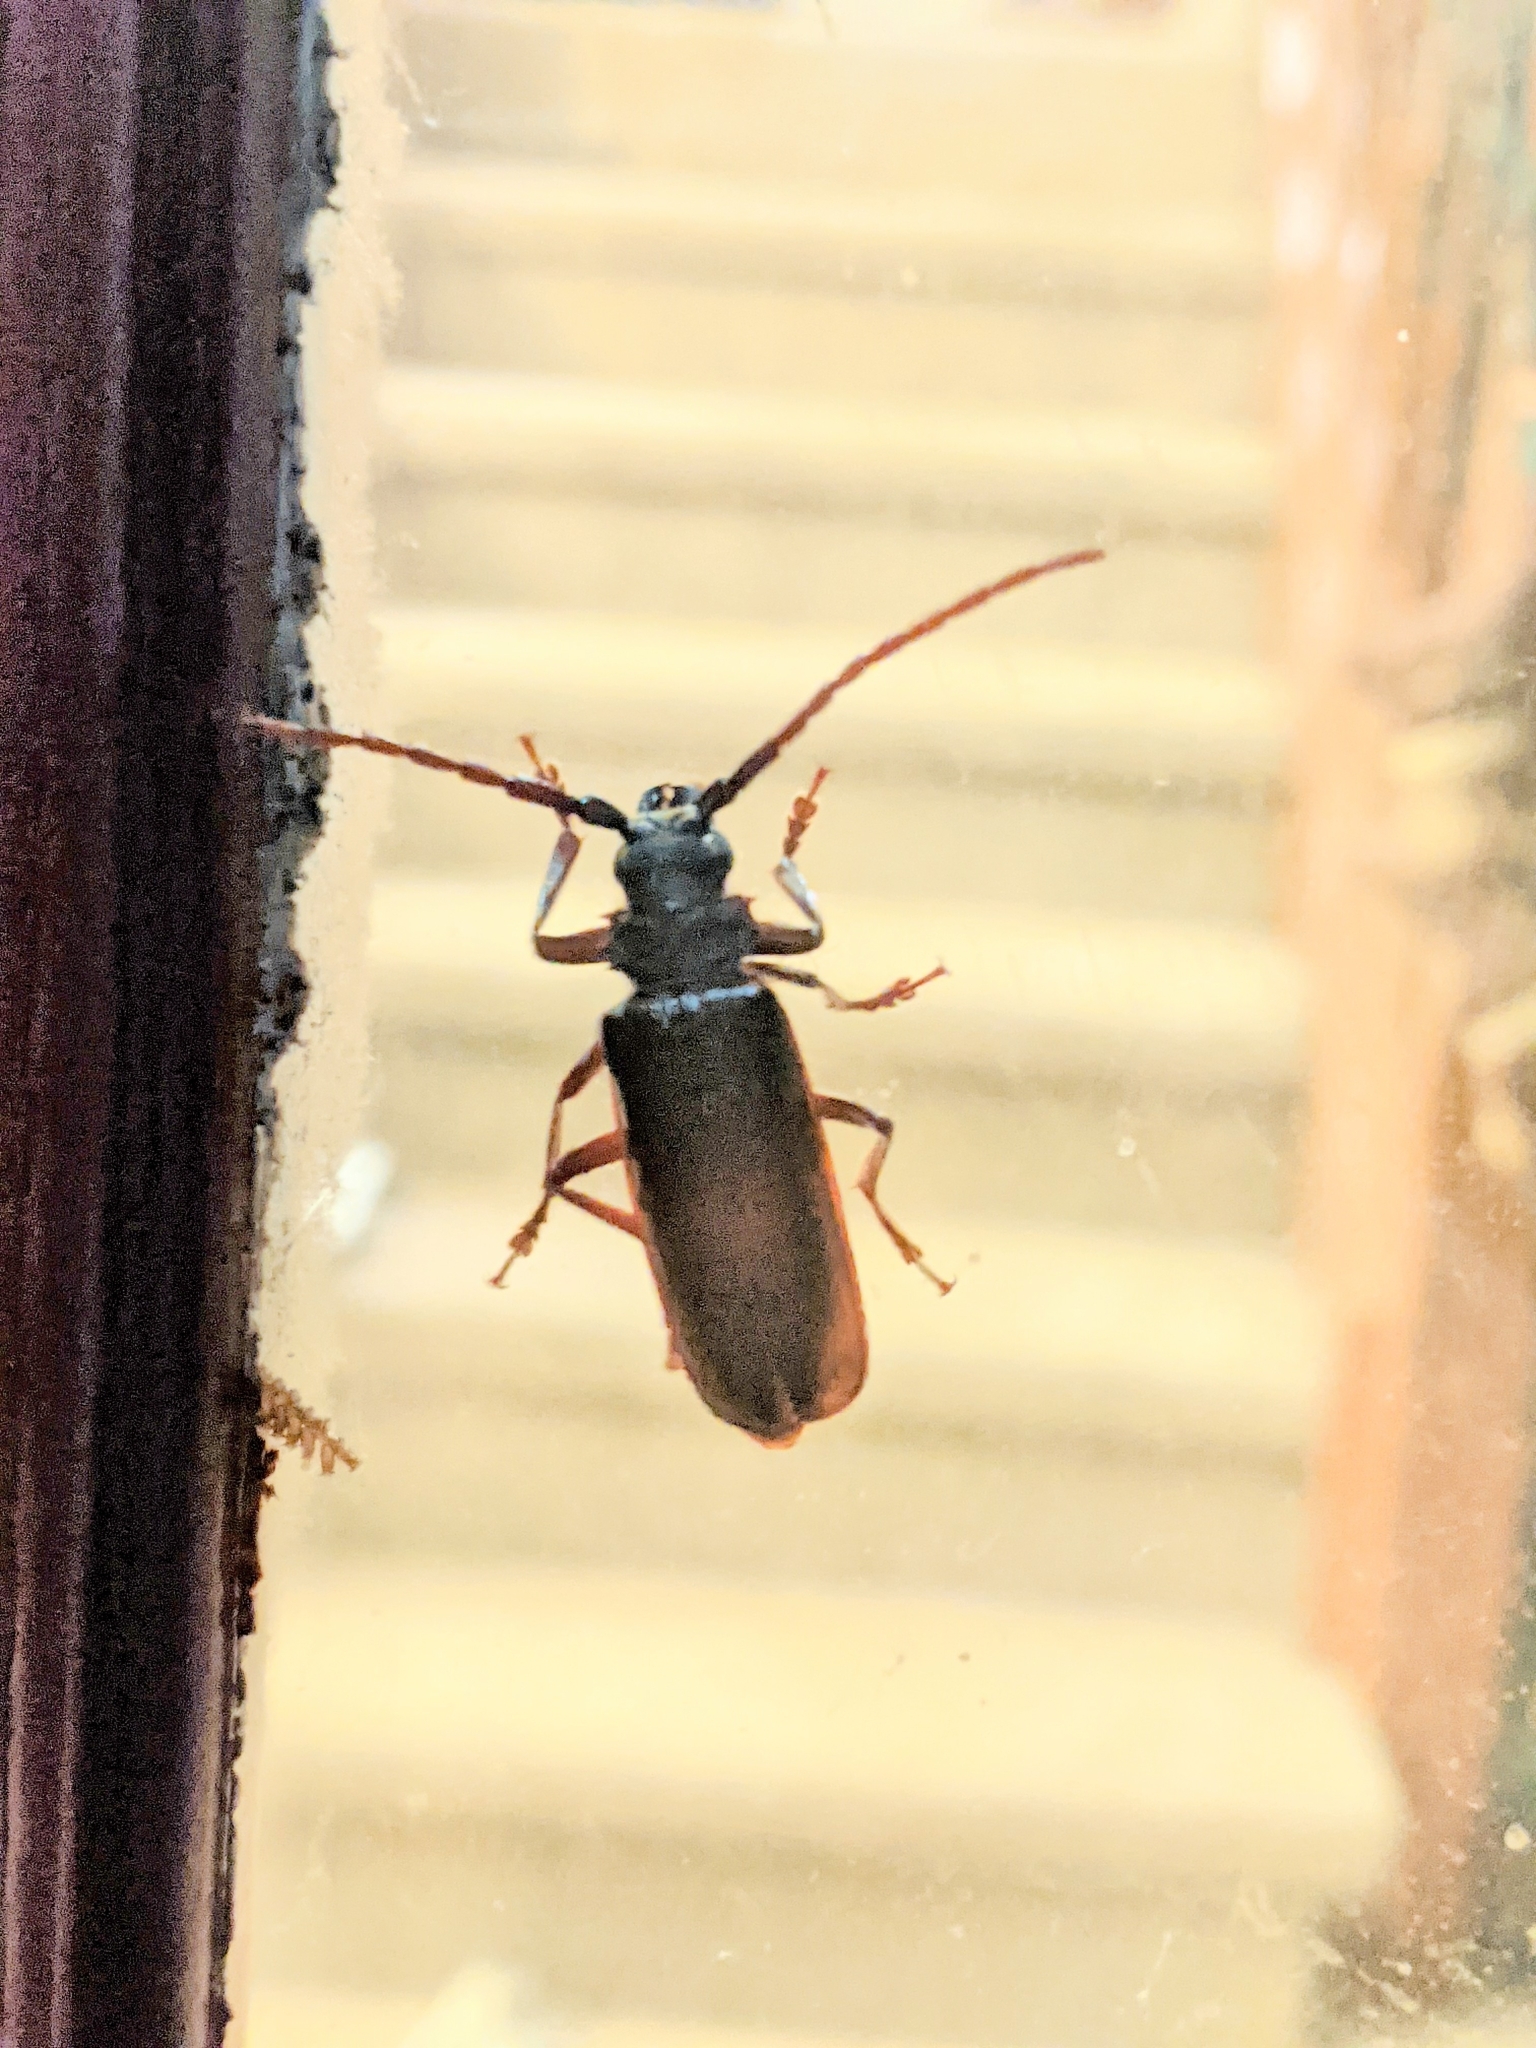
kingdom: Animalia
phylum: Arthropoda
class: Insecta
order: Coleoptera
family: Cerambycidae
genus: Orthosoma
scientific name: Orthosoma brunneum
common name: Brown prionid beetle
